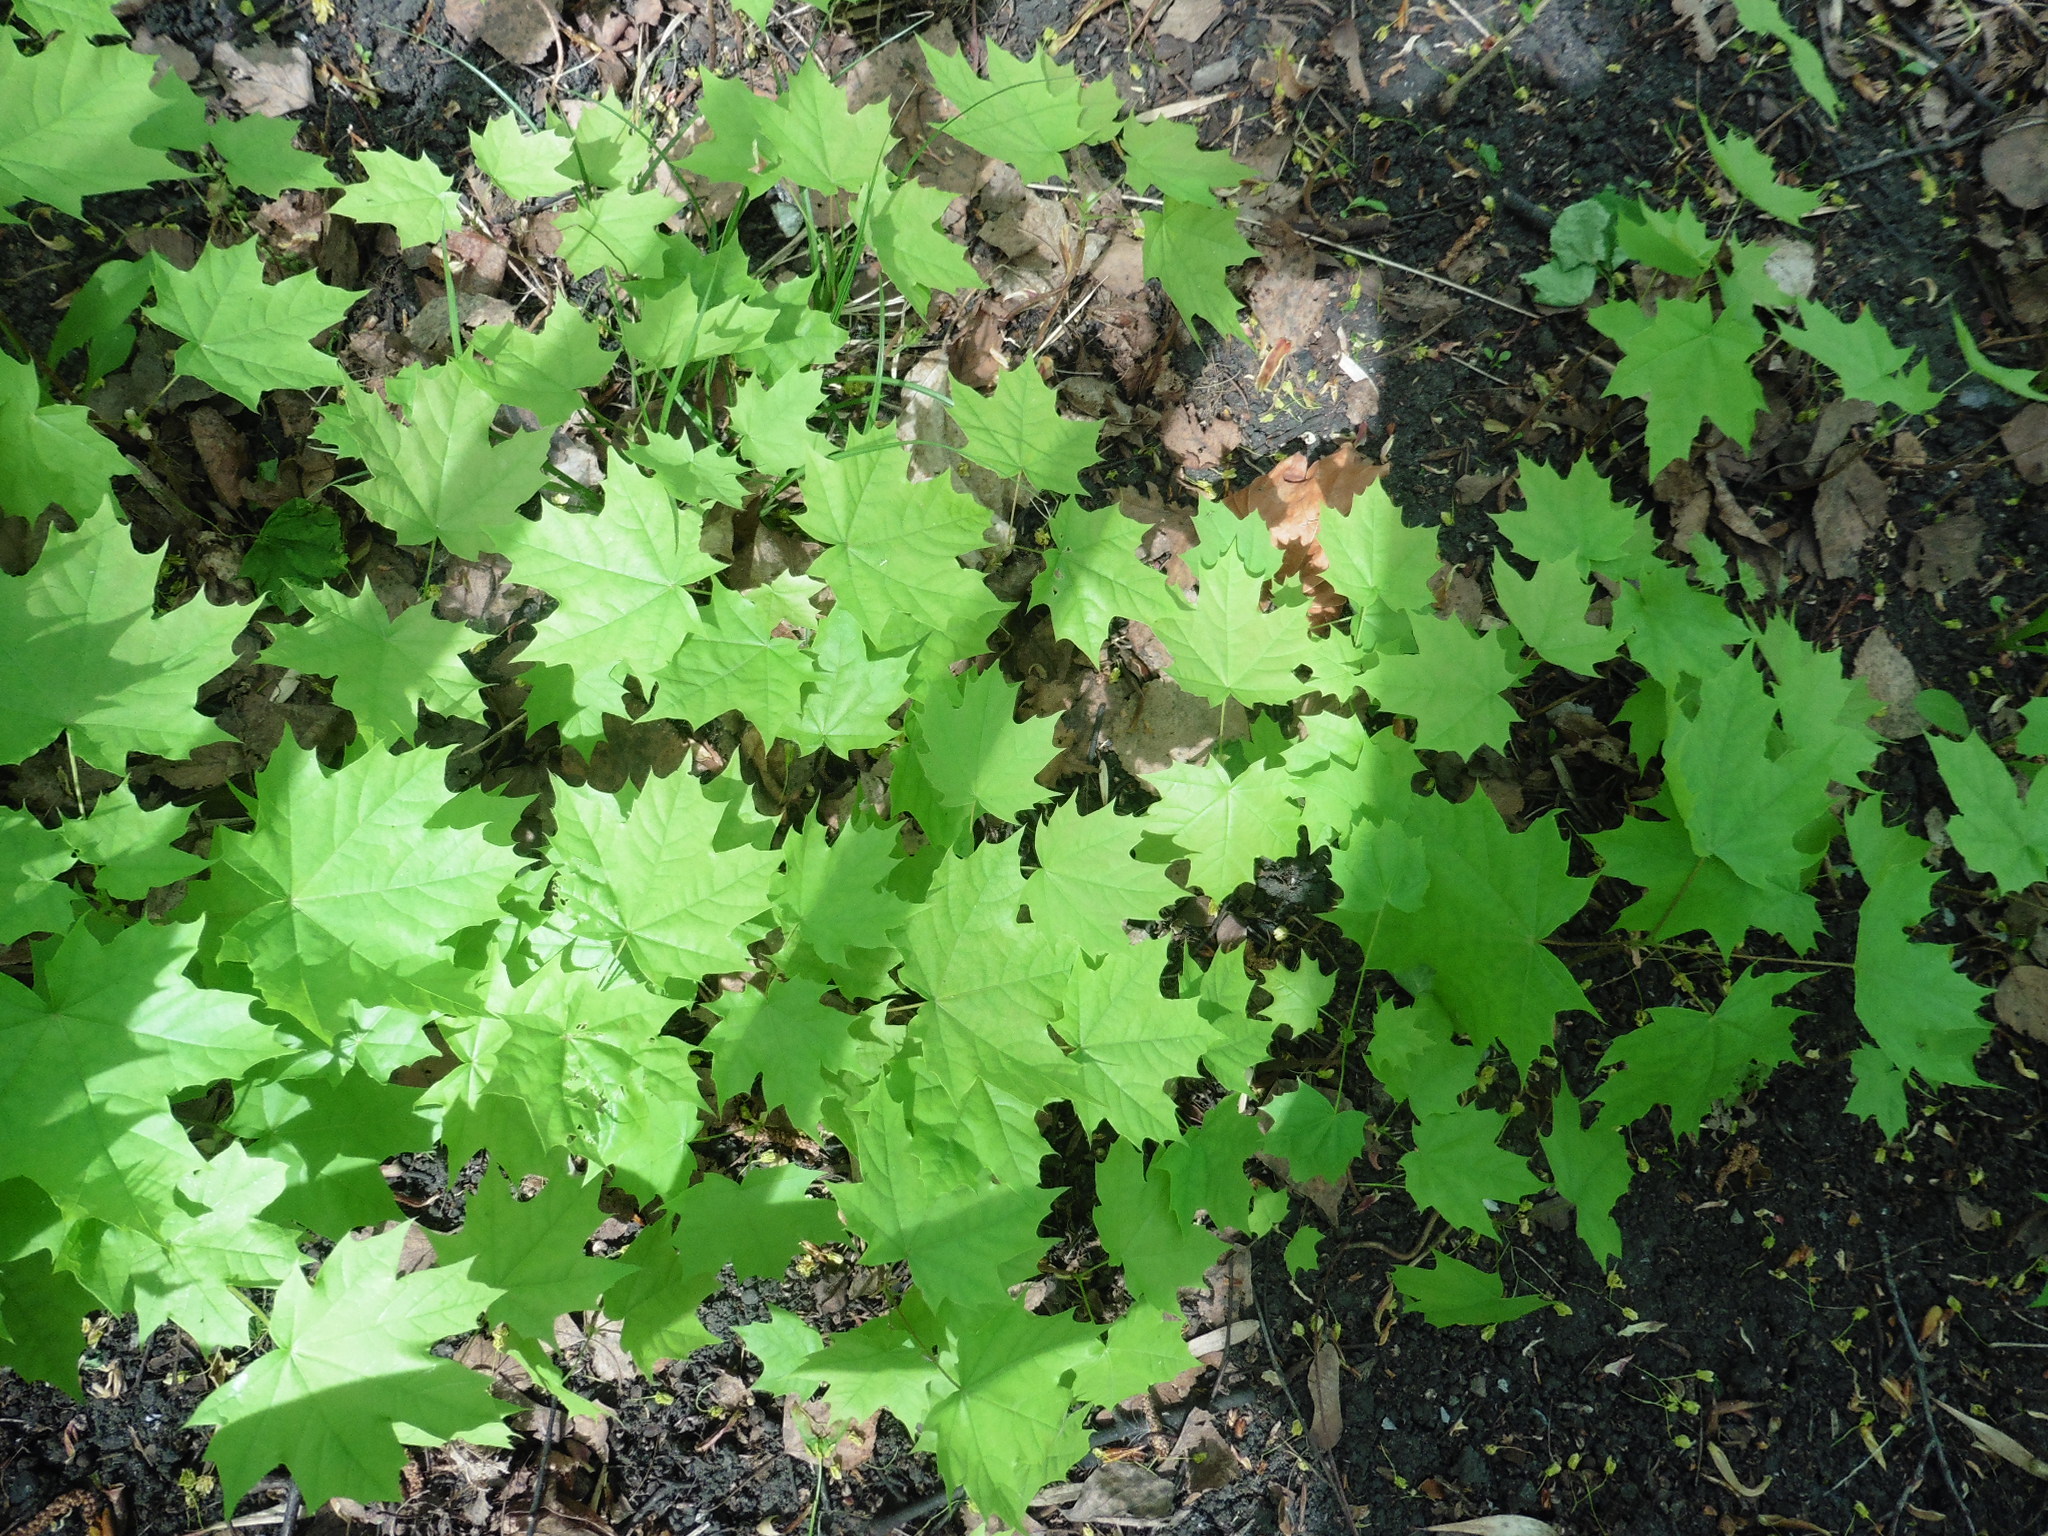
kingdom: Plantae
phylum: Tracheophyta
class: Magnoliopsida
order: Sapindales
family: Sapindaceae
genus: Acer
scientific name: Acer platanoides
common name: Norway maple
